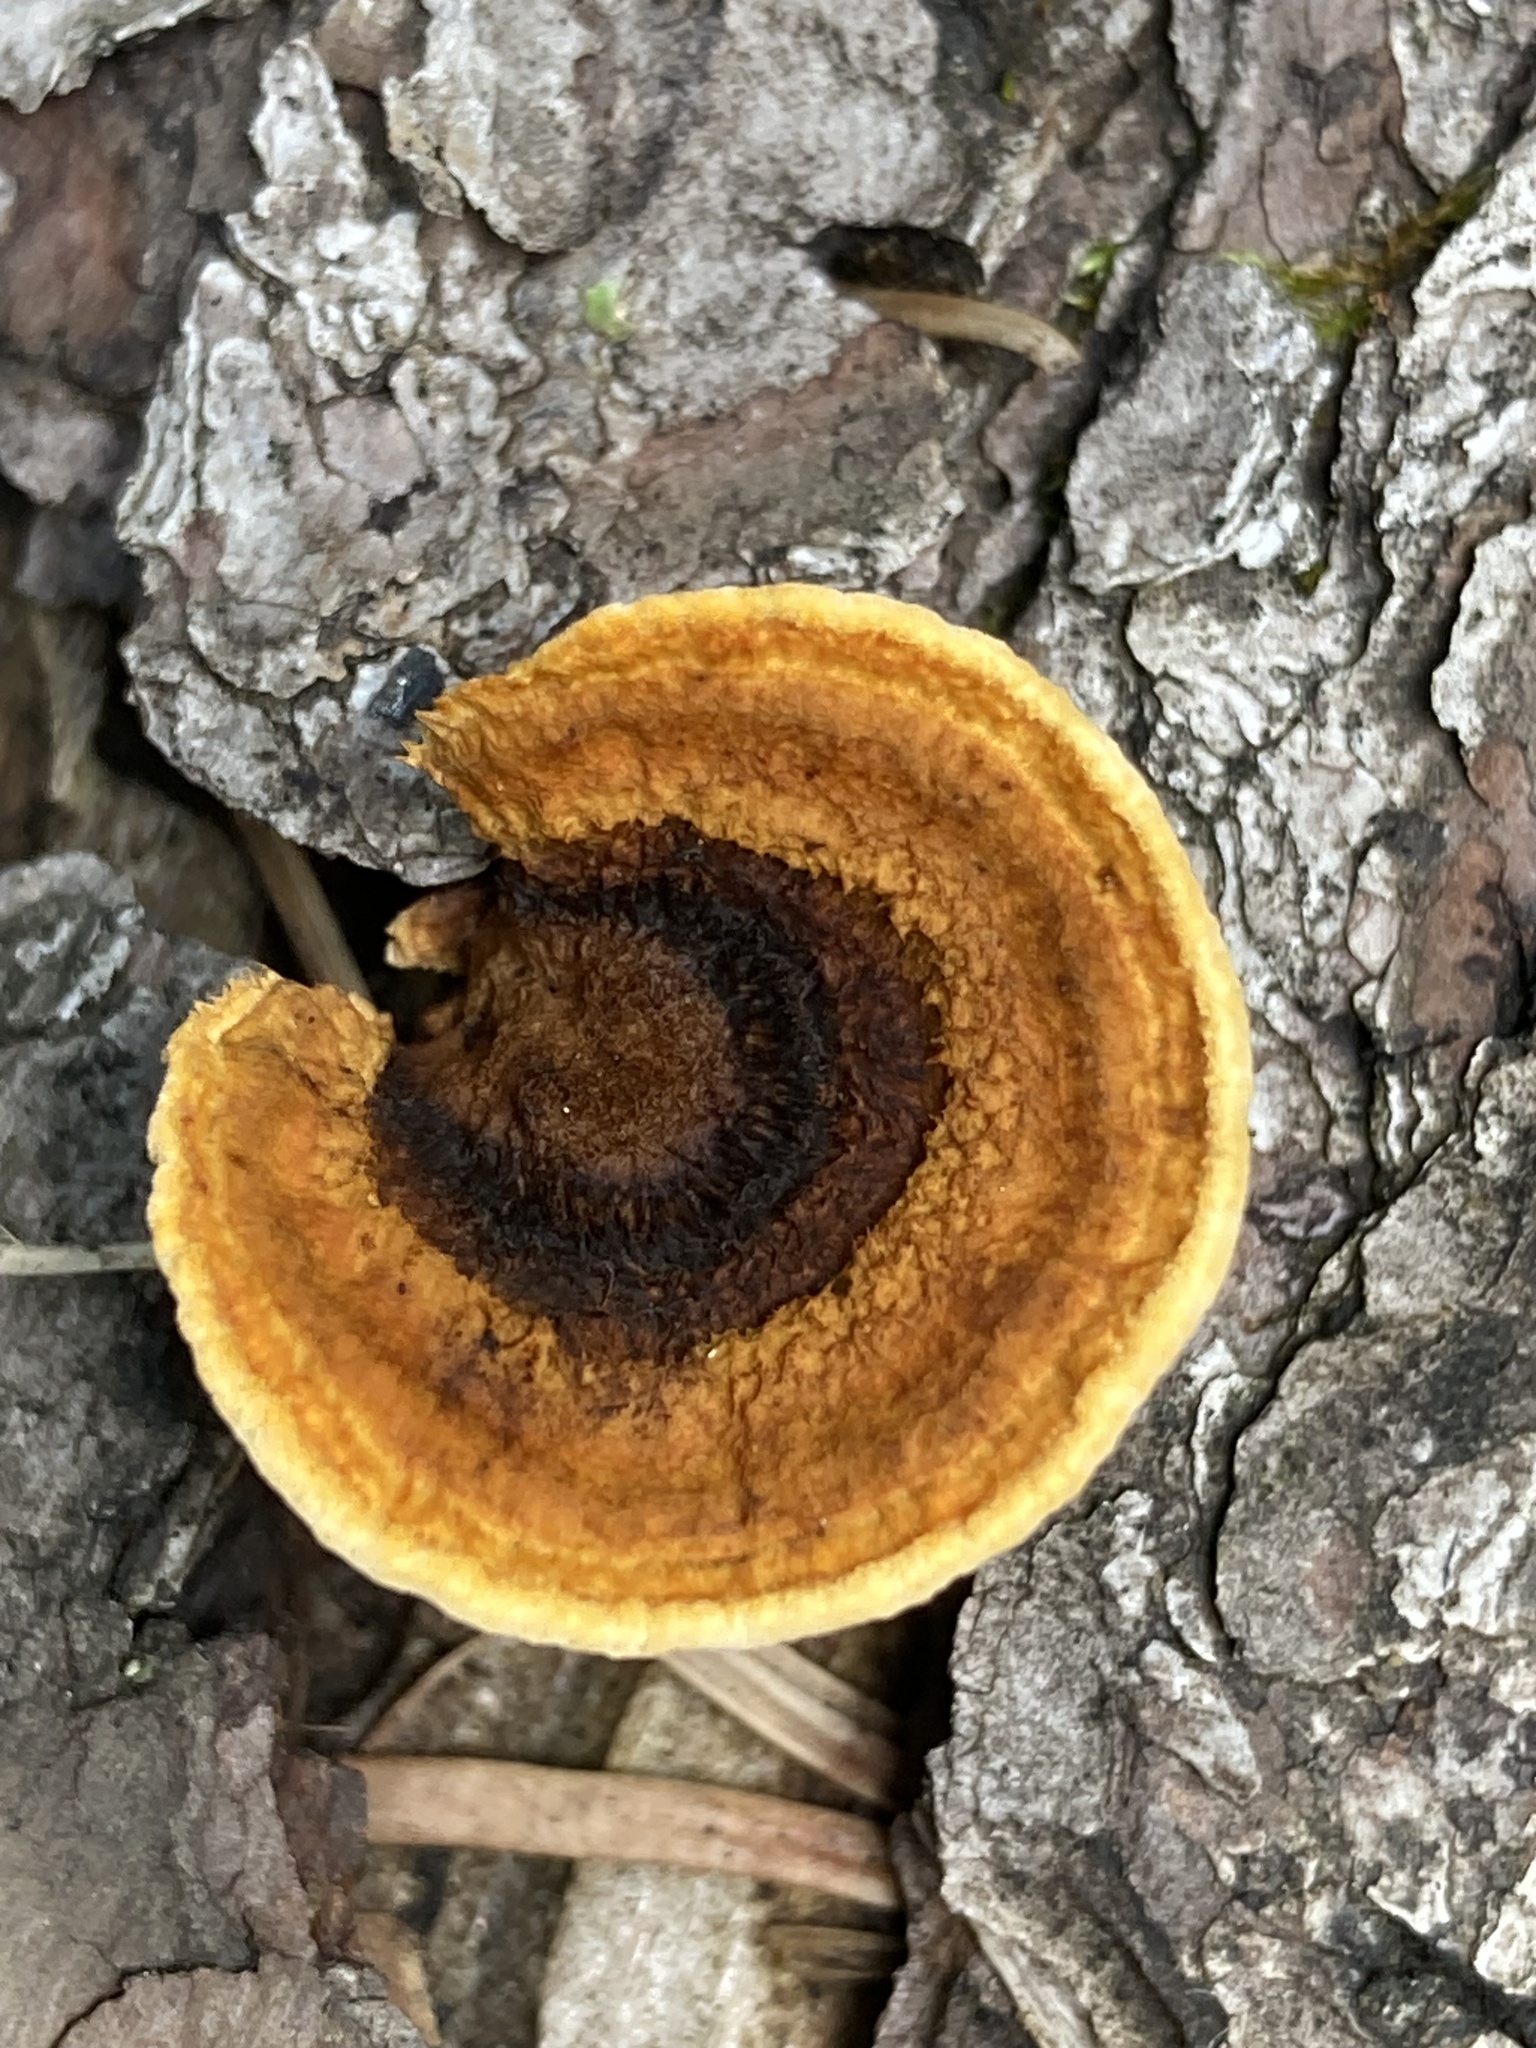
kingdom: Fungi
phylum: Basidiomycota
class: Agaricomycetes
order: Gloeophyllales
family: Gloeophyllaceae
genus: Gloeophyllum
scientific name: Gloeophyllum sepiarium
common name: Conifer mazegill
